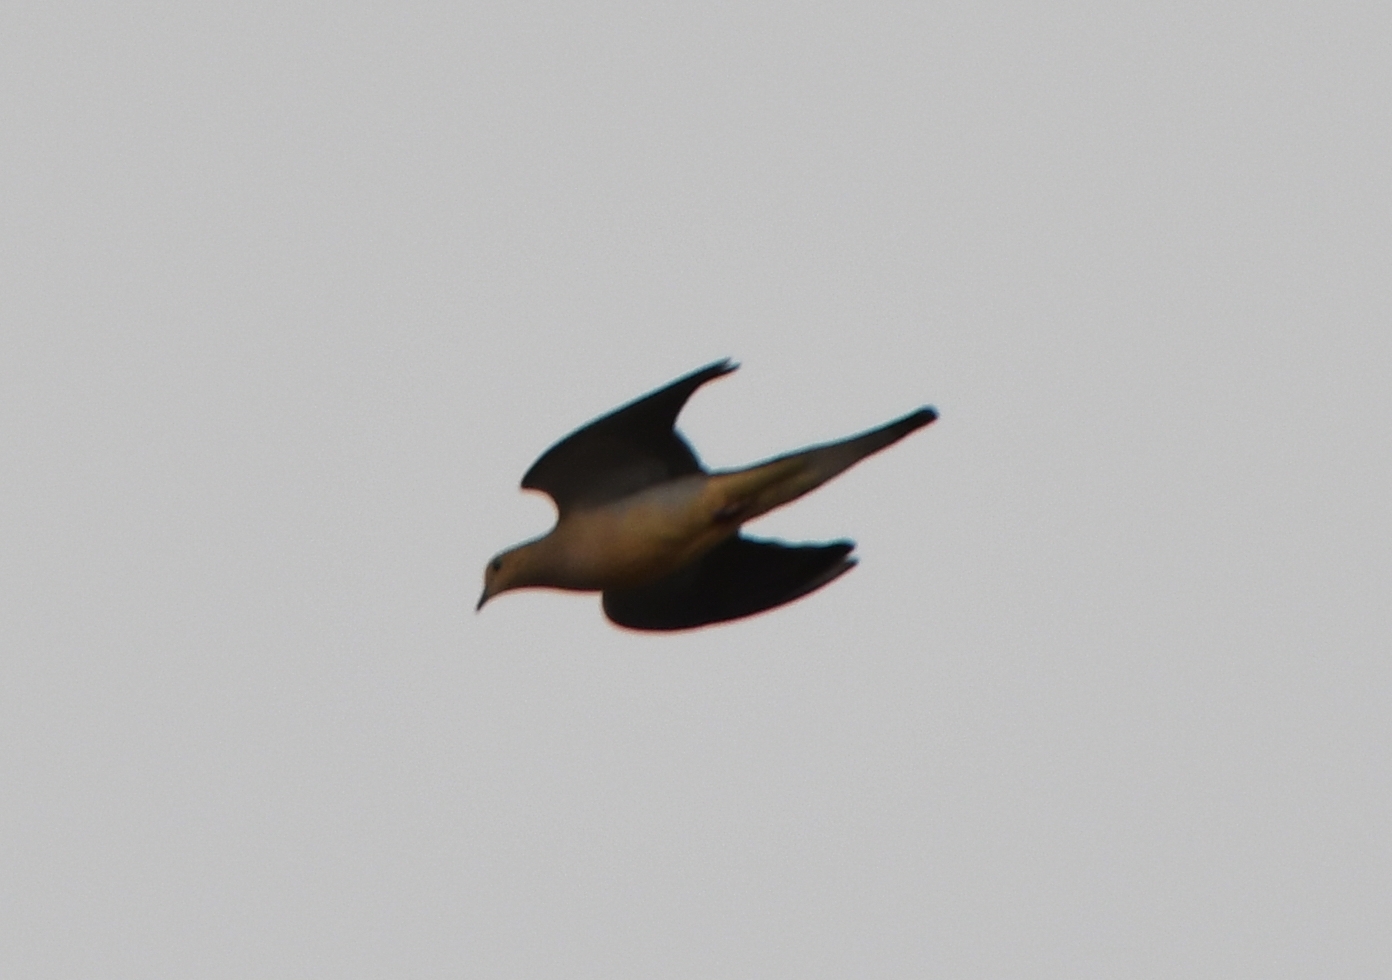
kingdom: Animalia
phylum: Chordata
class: Aves
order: Columbiformes
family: Columbidae
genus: Zenaida
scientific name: Zenaida macroura
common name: Mourning dove
